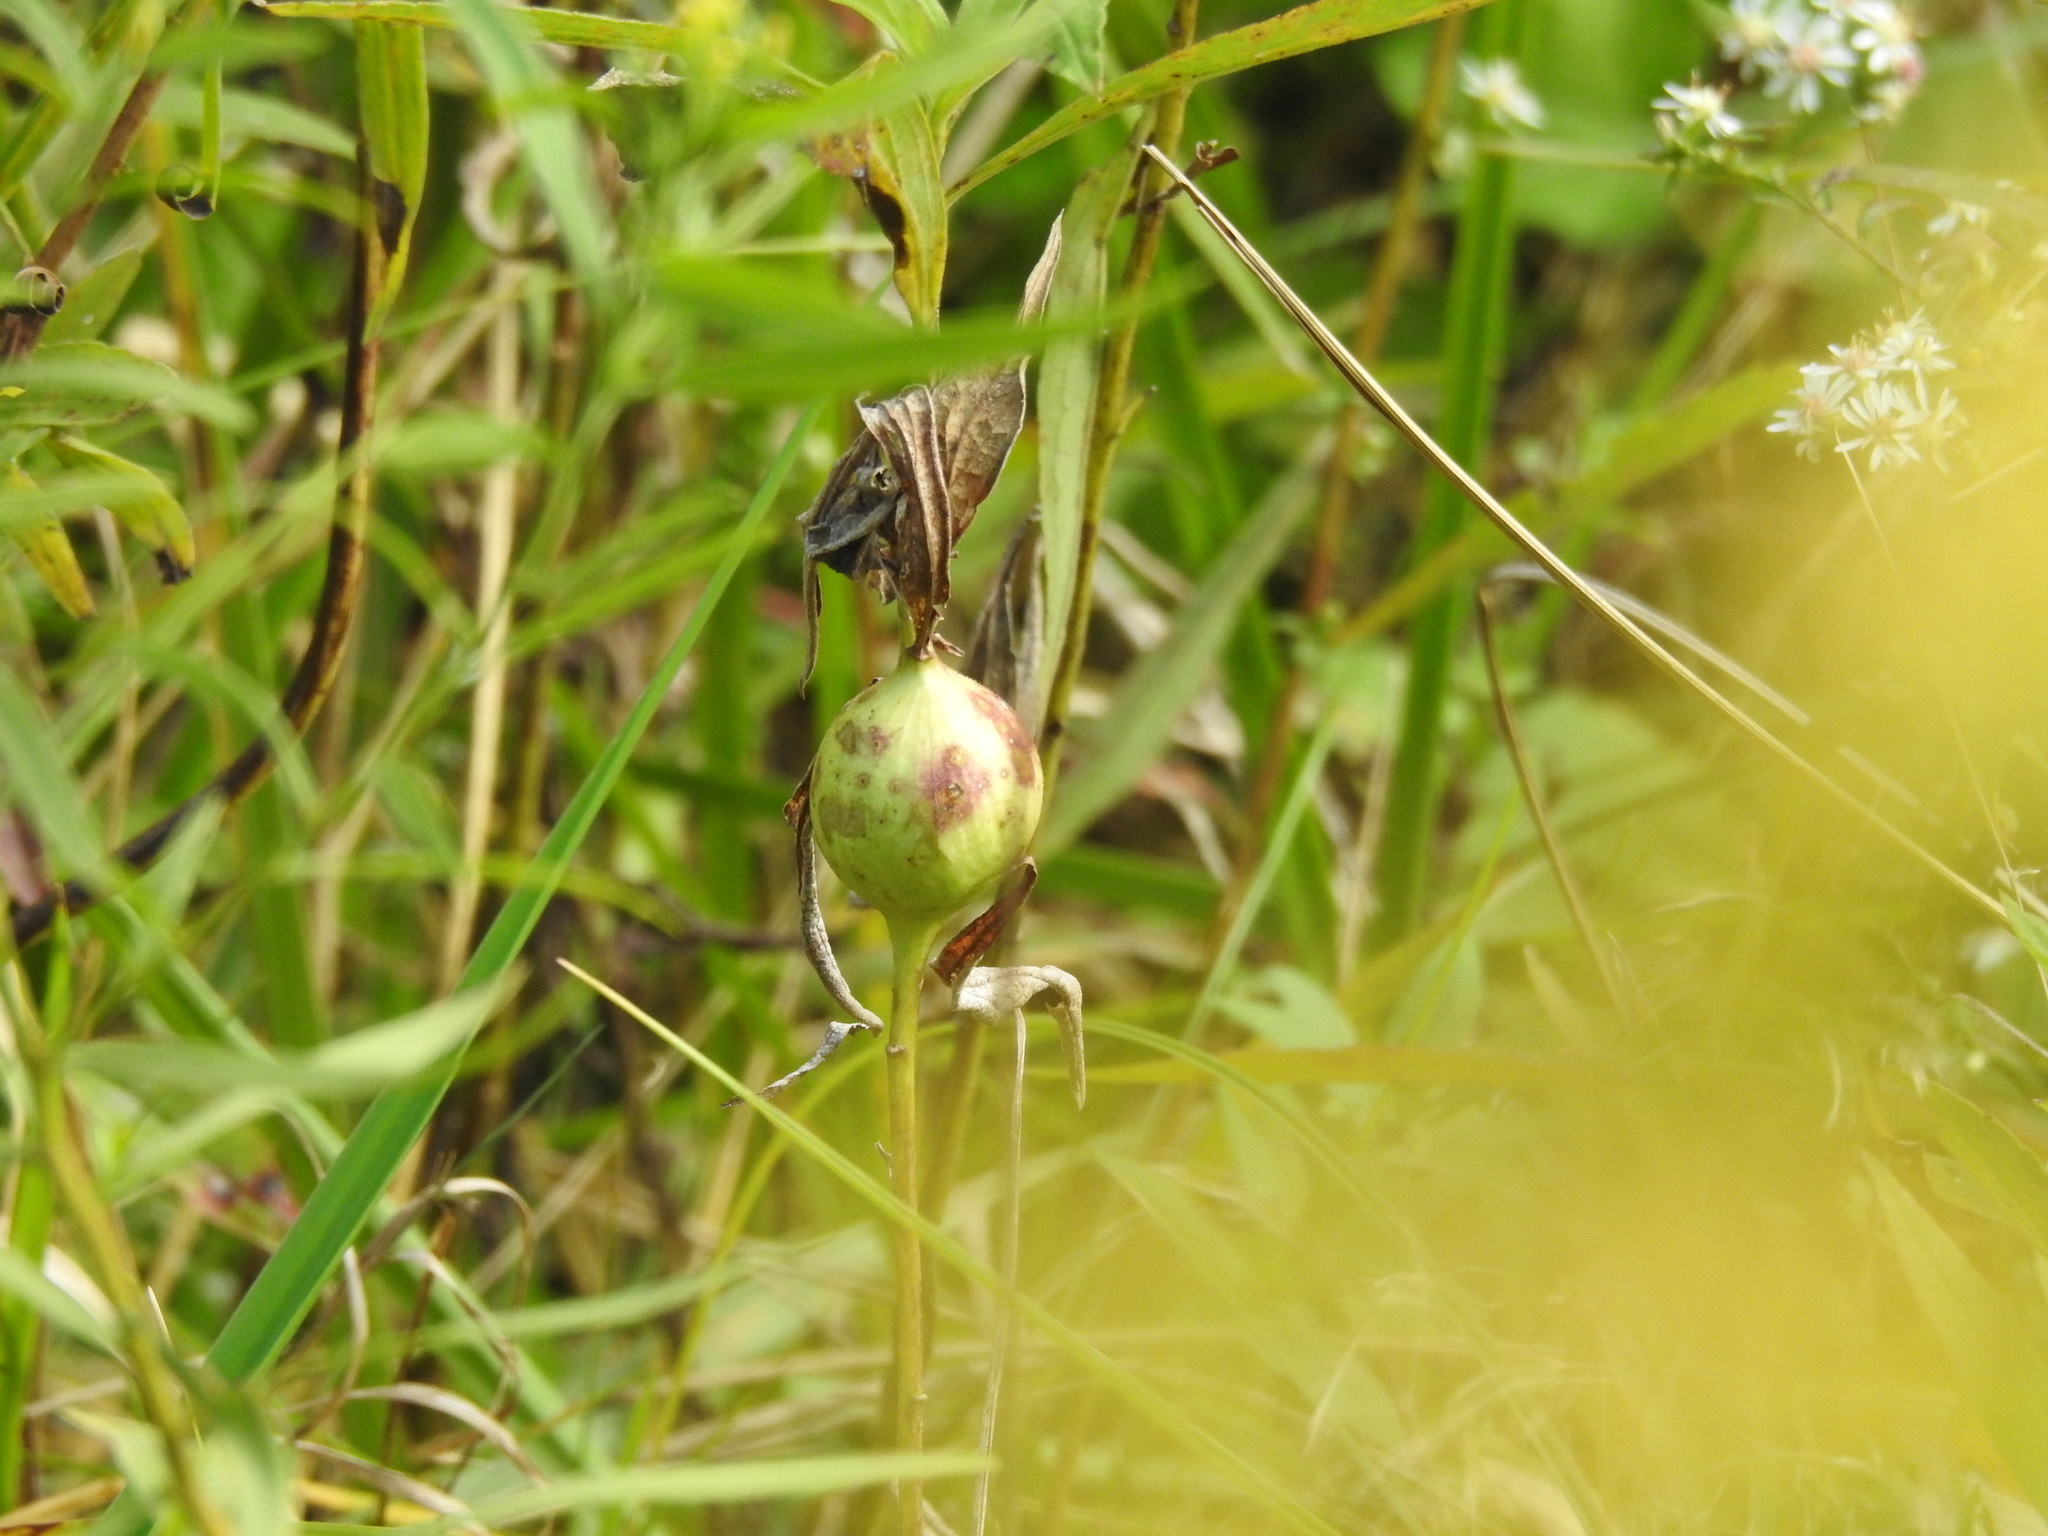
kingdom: Animalia
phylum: Arthropoda
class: Insecta
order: Diptera
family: Tephritidae
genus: Eurosta
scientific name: Eurosta solidaginis
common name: Goldenrod gall fly
